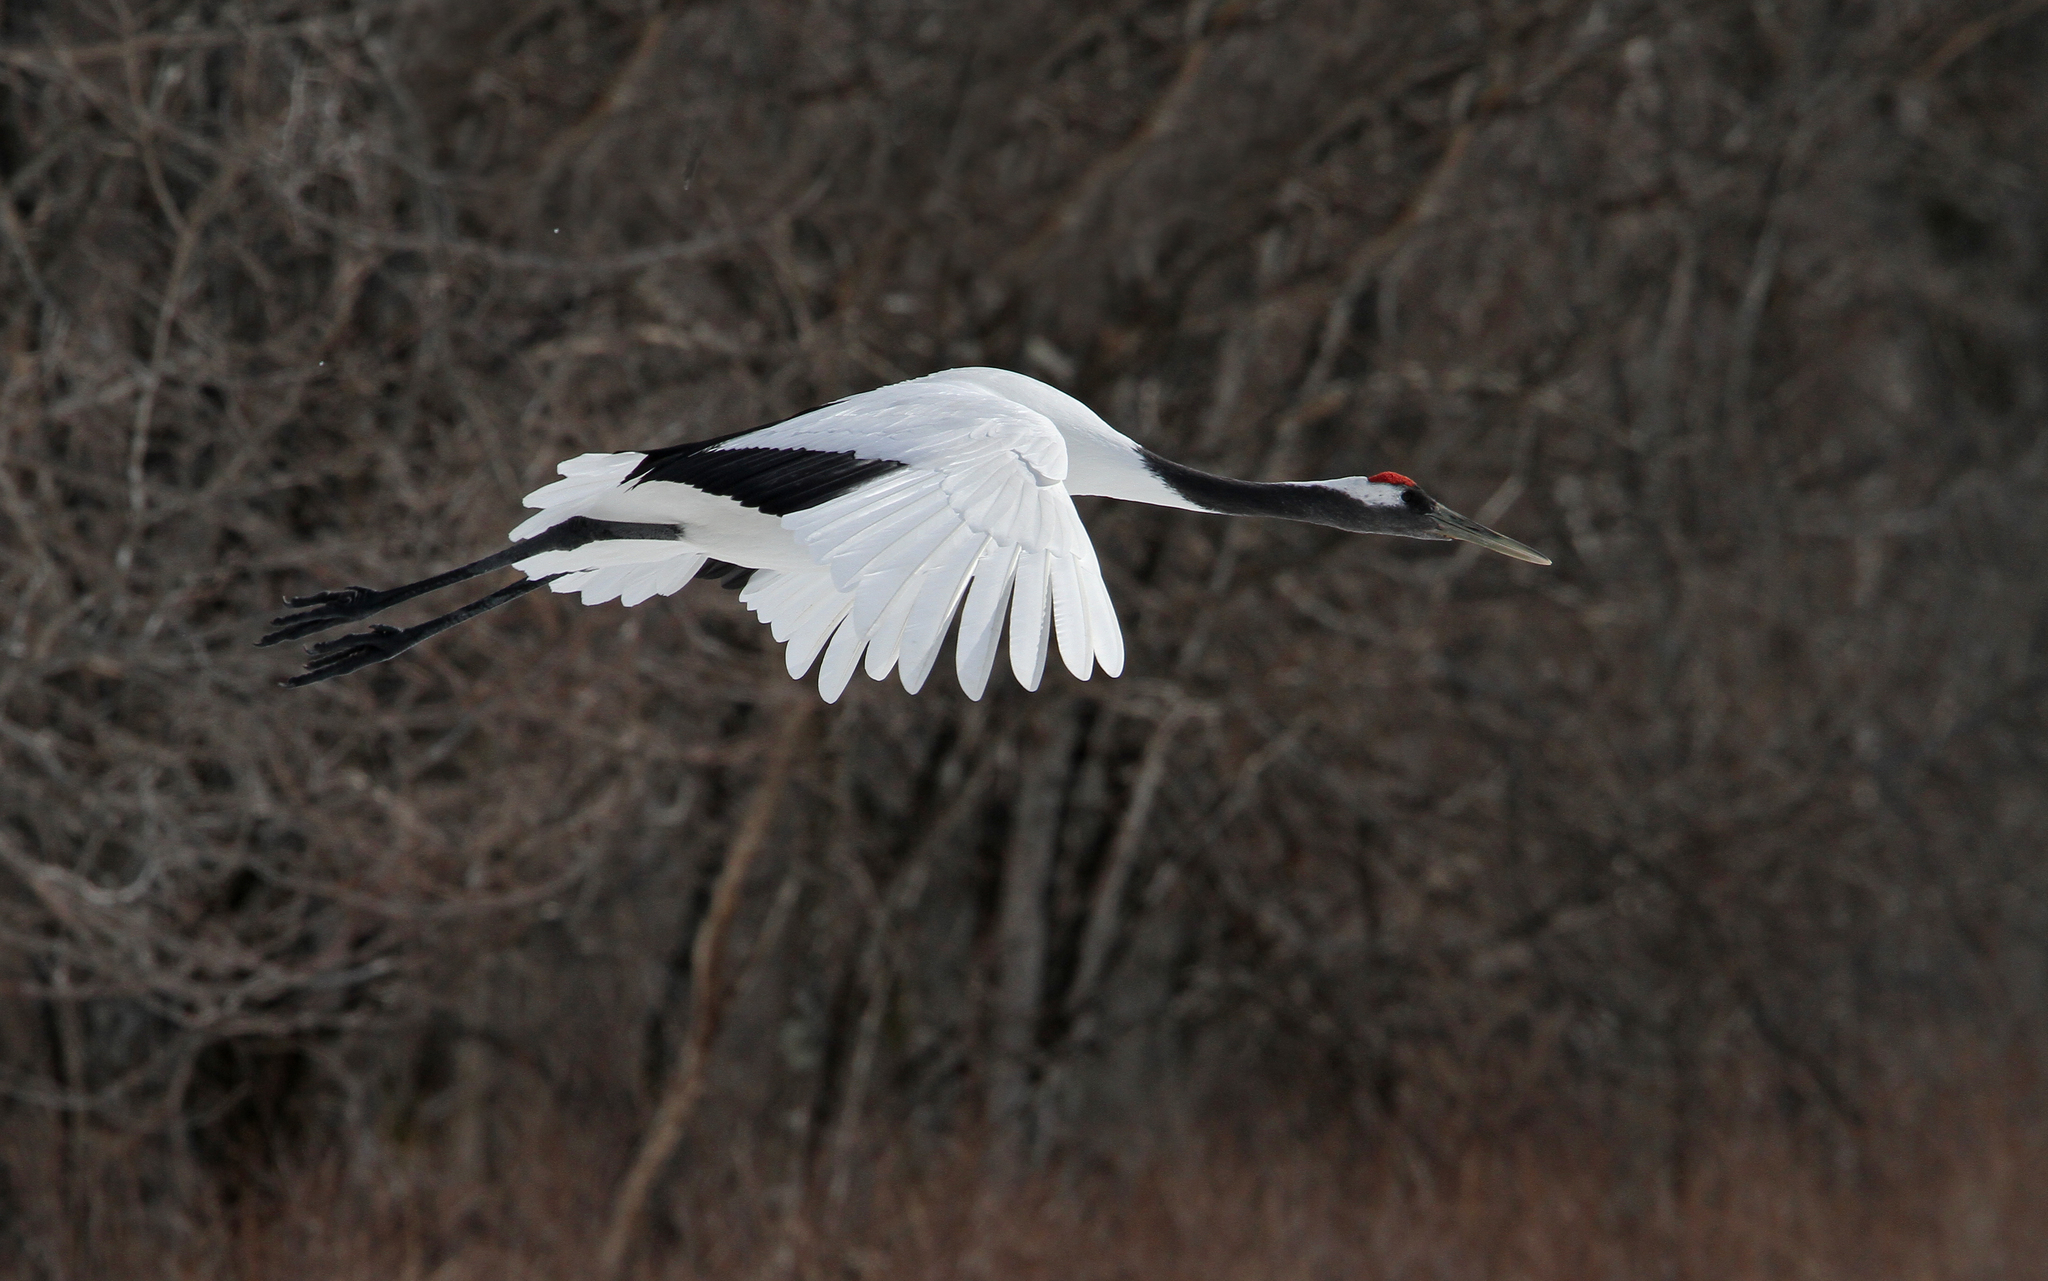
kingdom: Animalia
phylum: Chordata
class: Aves
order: Gruiformes
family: Gruidae
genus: Grus
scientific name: Grus japonensis
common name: Red-crowned crane
